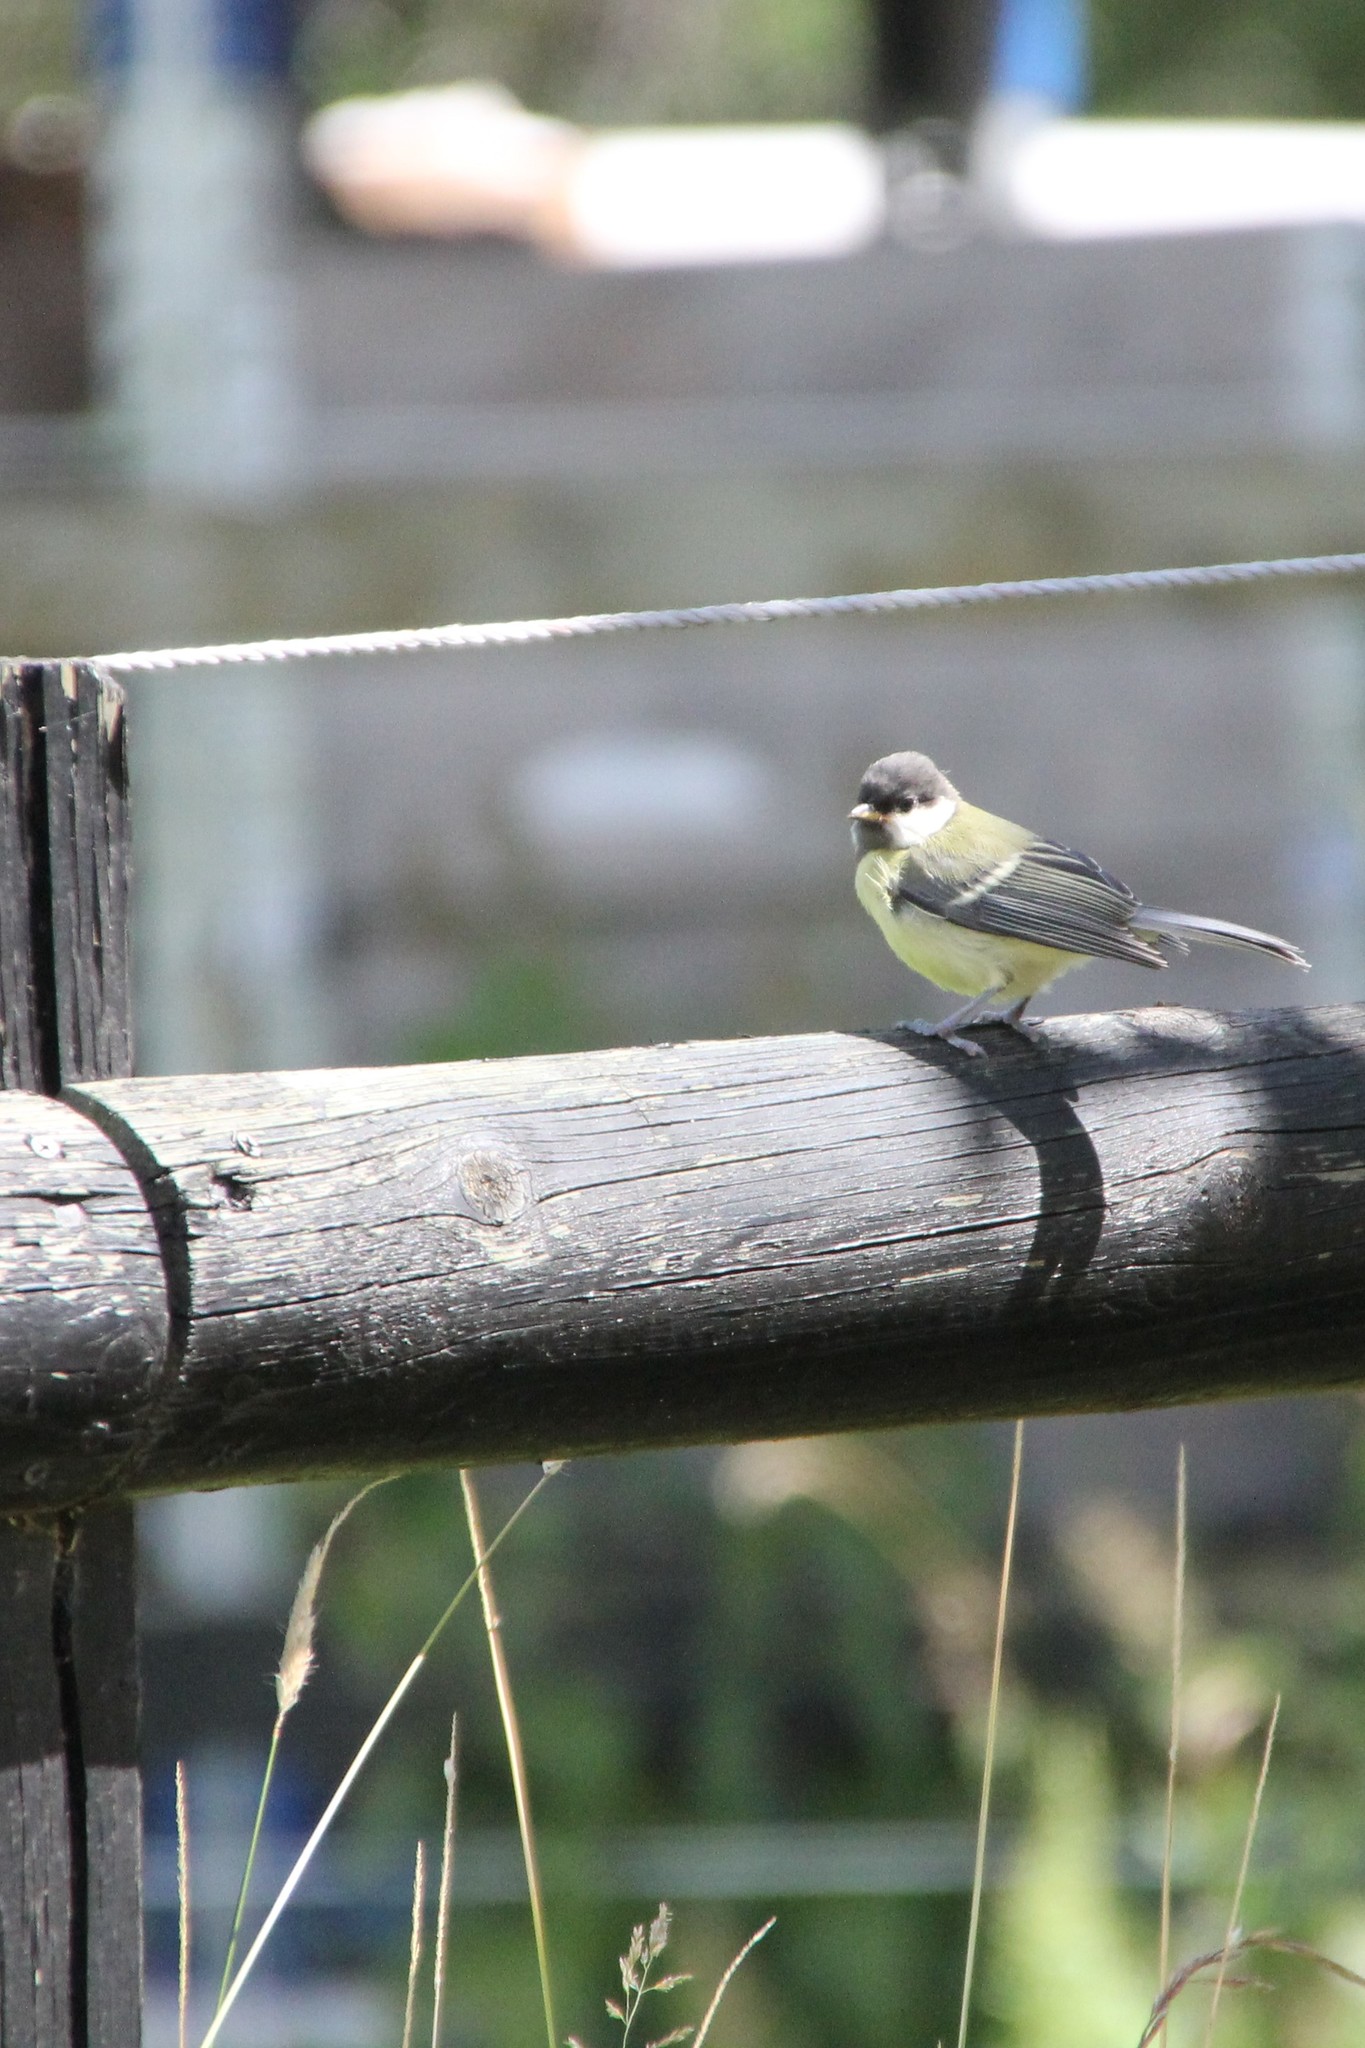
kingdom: Animalia
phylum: Chordata
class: Aves
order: Passeriformes
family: Paridae
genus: Parus
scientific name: Parus major
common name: Great tit
